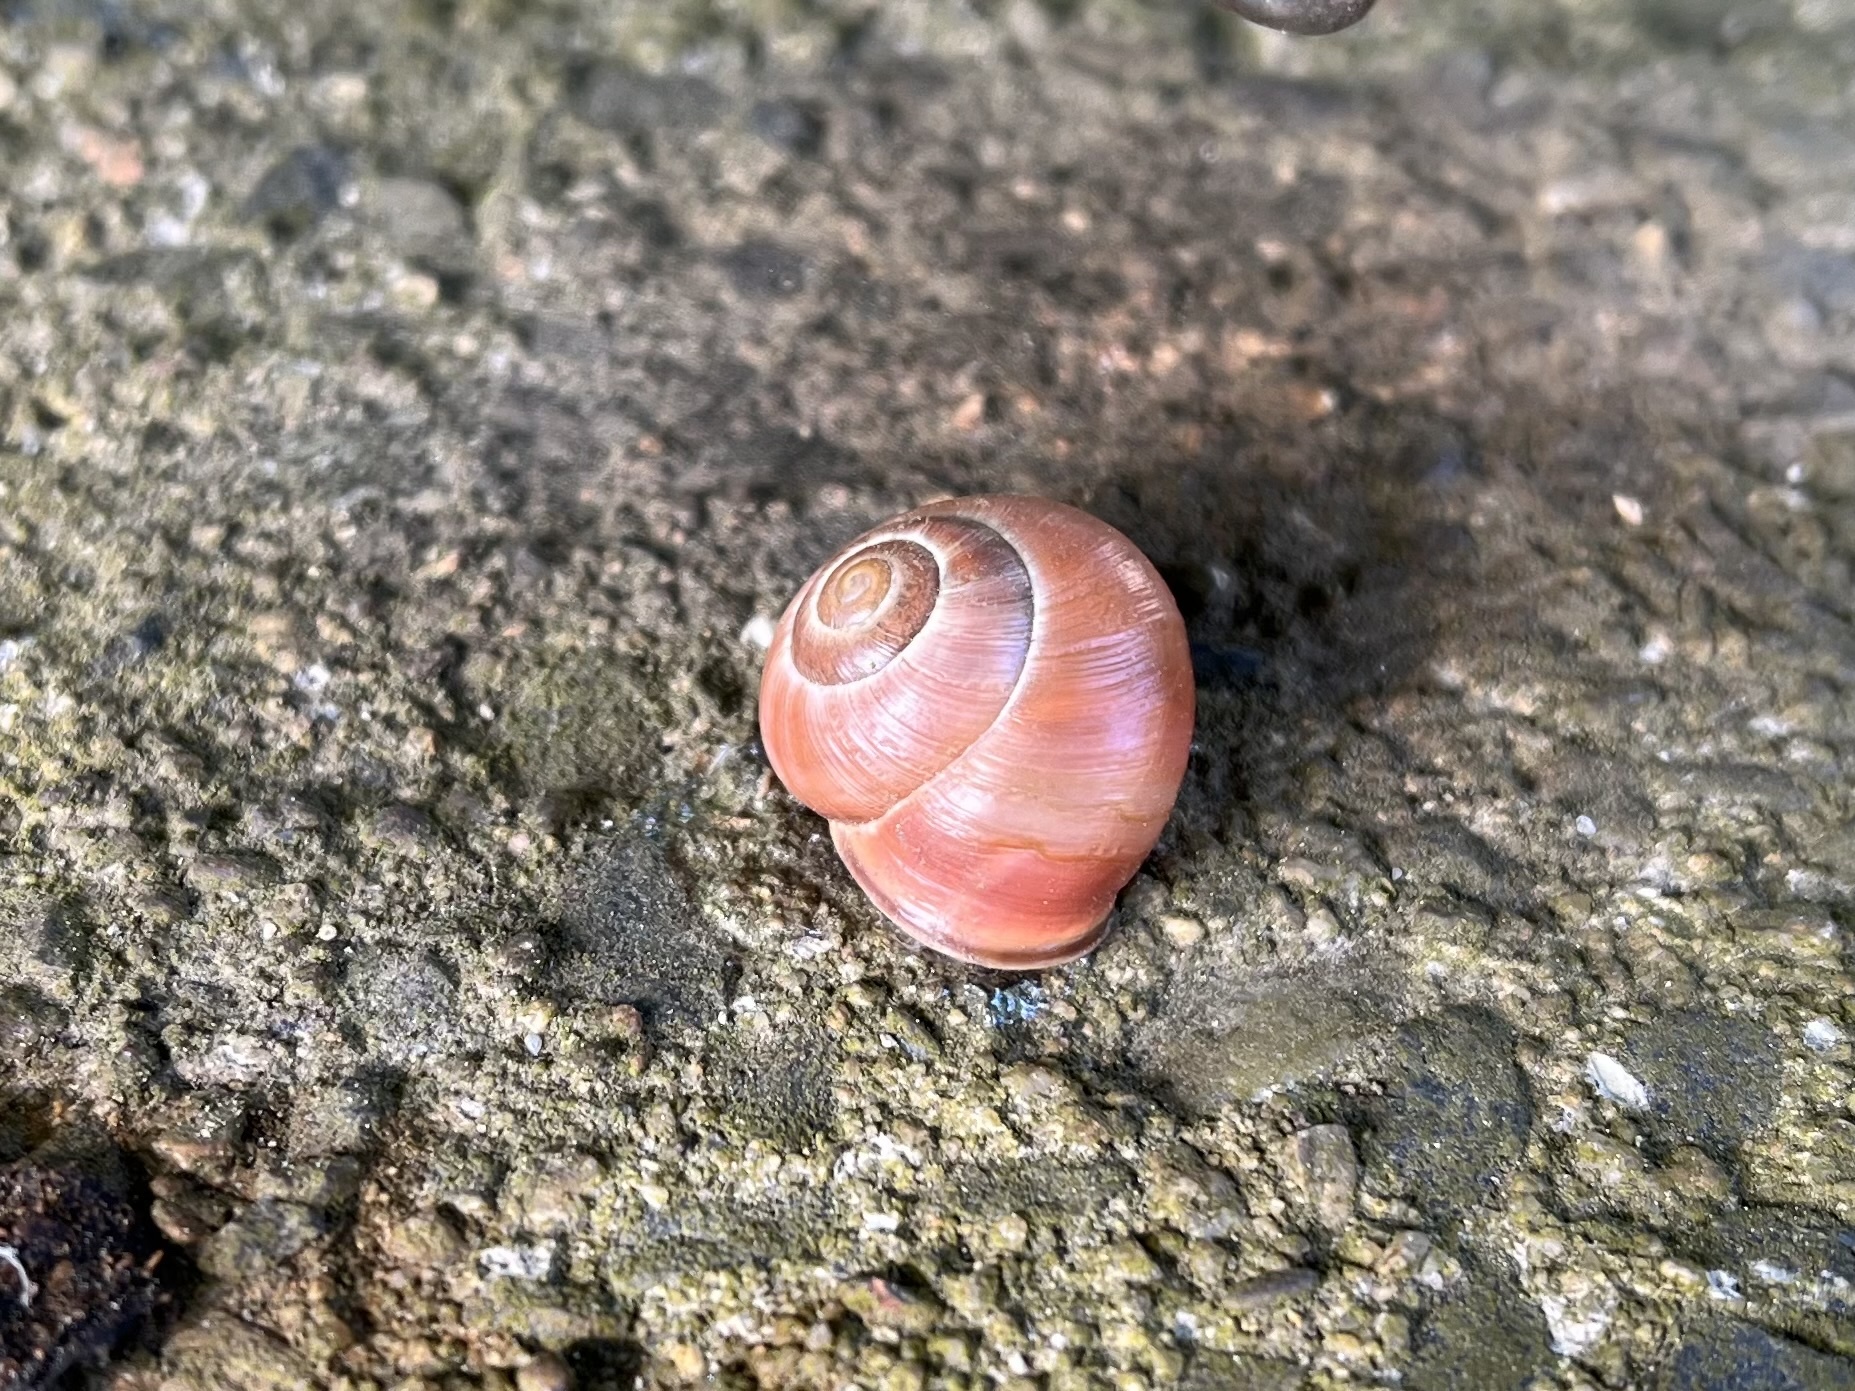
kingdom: Animalia
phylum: Mollusca
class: Gastropoda
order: Stylommatophora
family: Helicidae
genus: Cepaea
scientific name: Cepaea nemoralis
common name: Grovesnail
